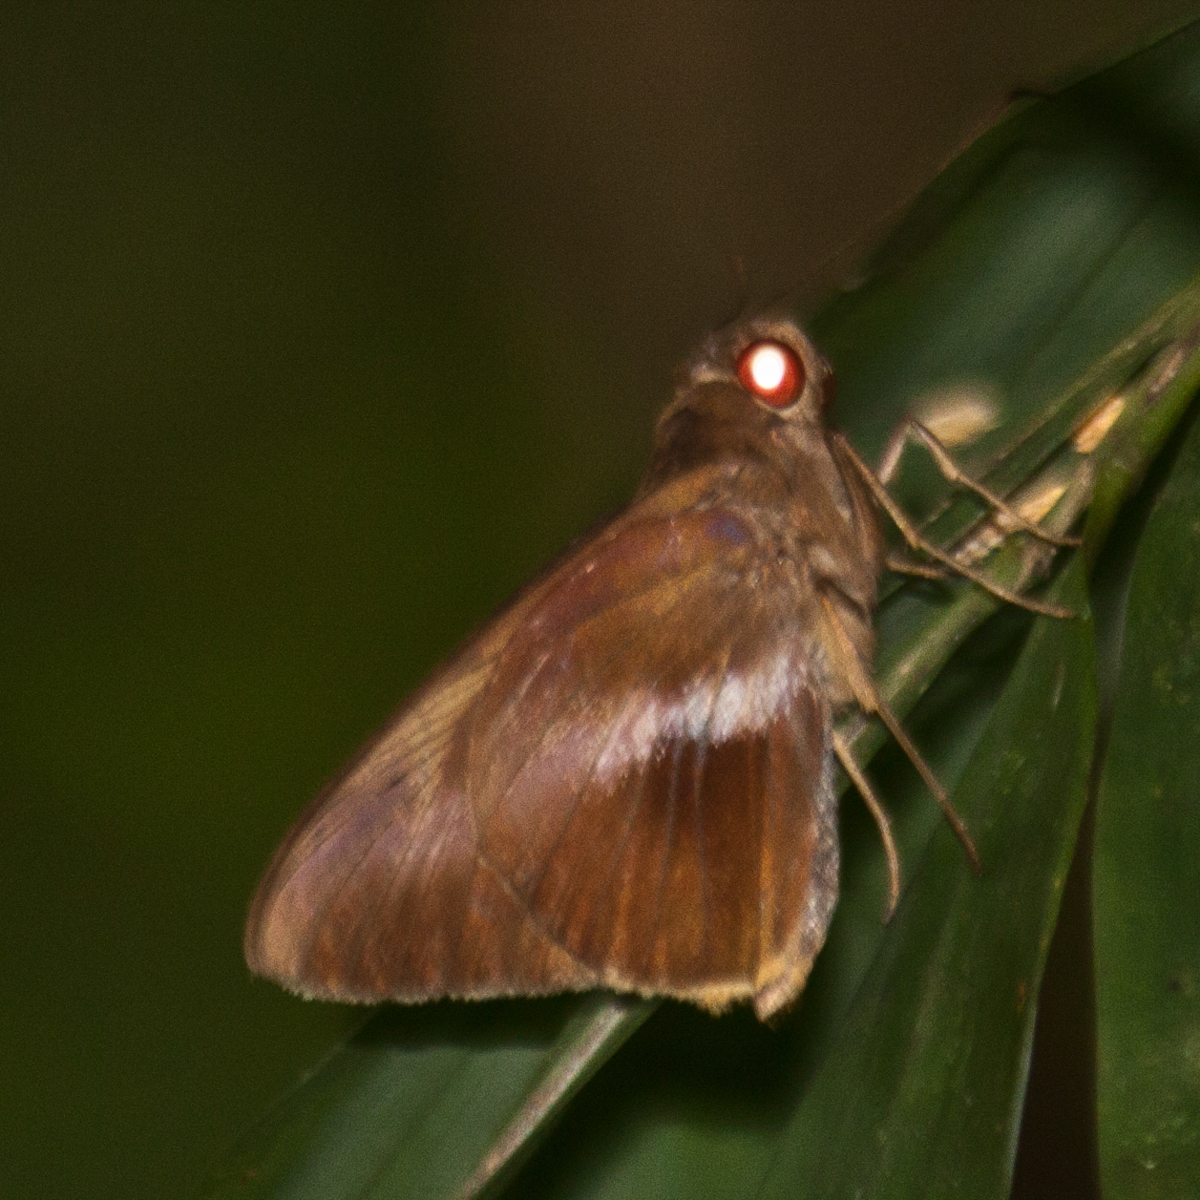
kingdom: Animalia
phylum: Arthropoda
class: Insecta
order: Lepidoptera
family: Hesperiidae
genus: Gangara
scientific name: Gangara lebadea
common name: Banded redeye
